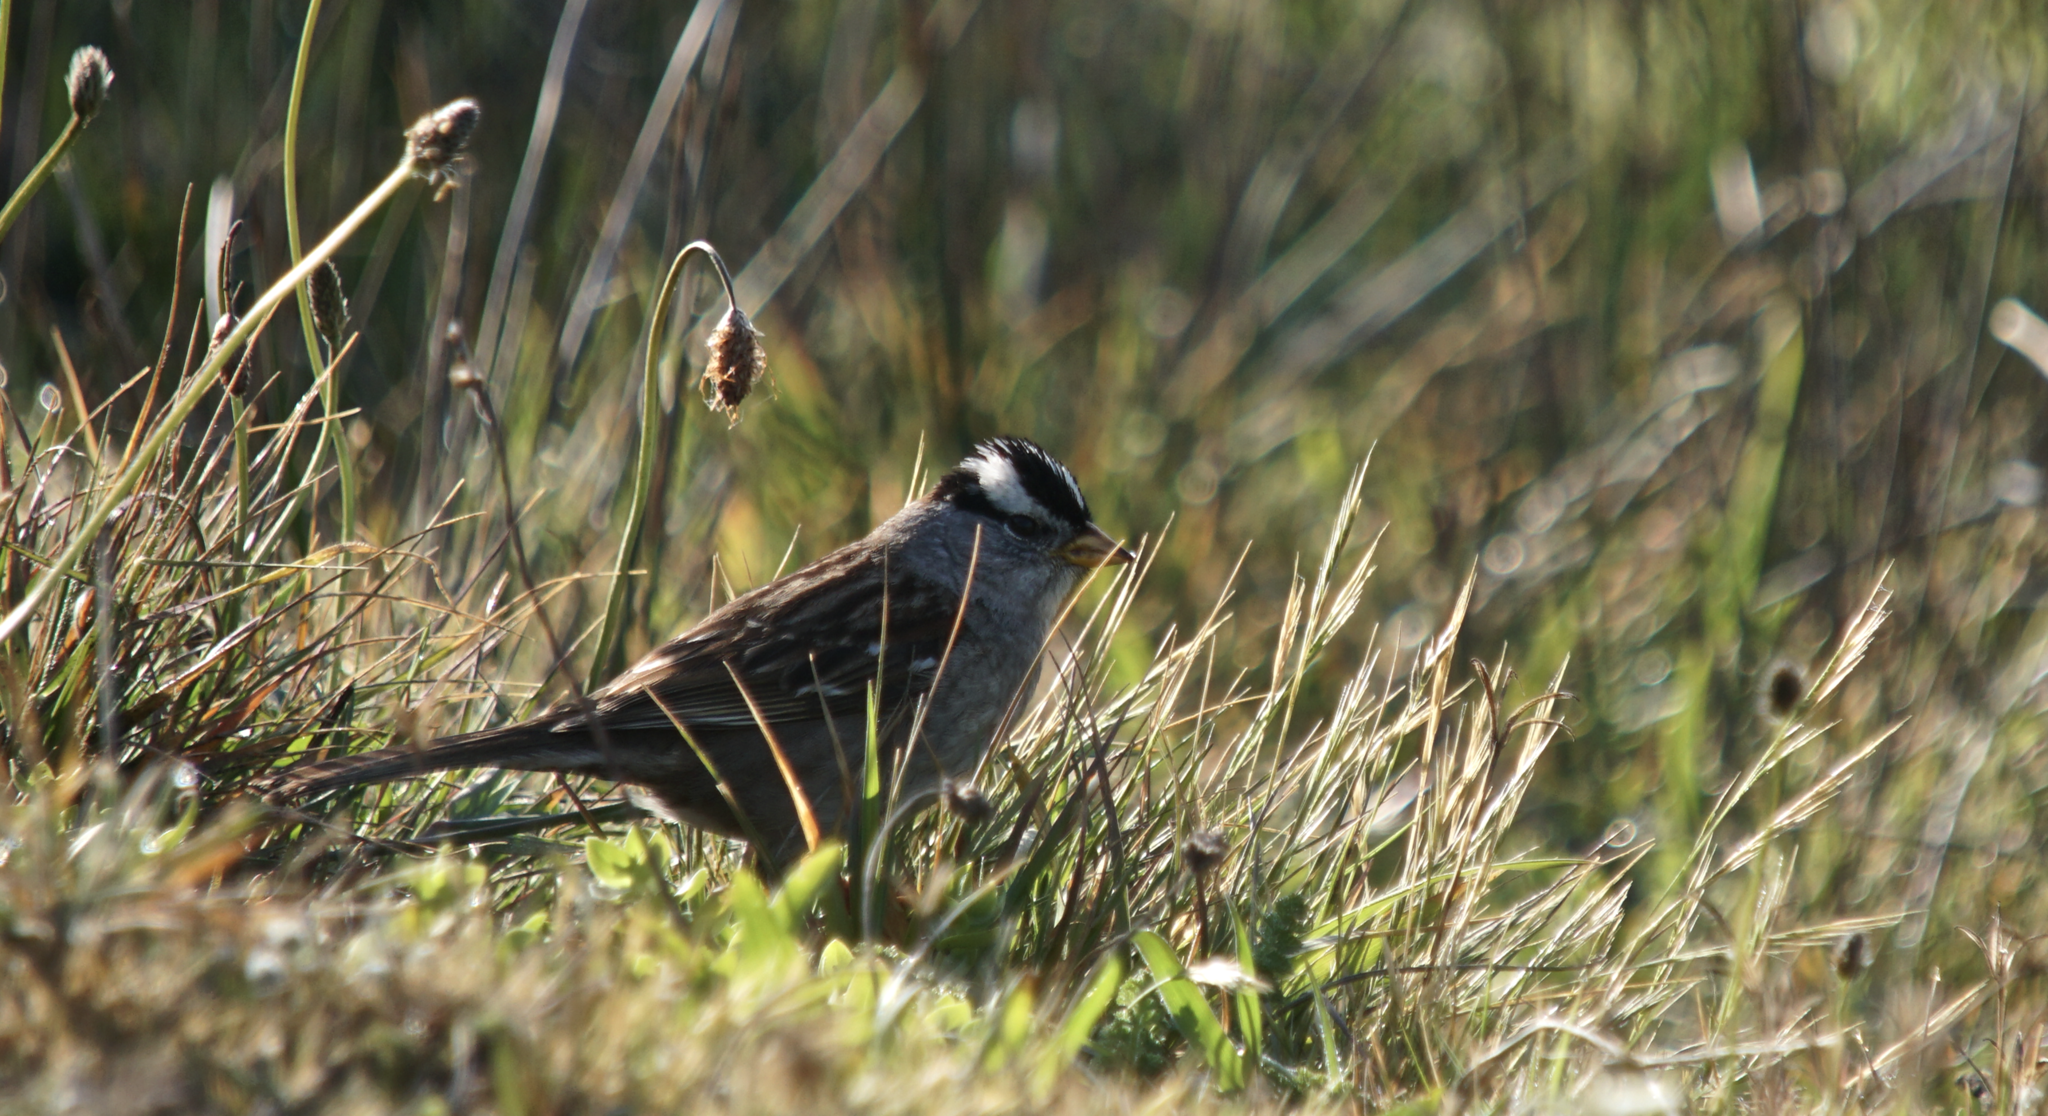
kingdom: Animalia
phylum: Chordata
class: Aves
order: Passeriformes
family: Passerellidae
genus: Zonotrichia
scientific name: Zonotrichia leucophrys
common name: White-crowned sparrow
